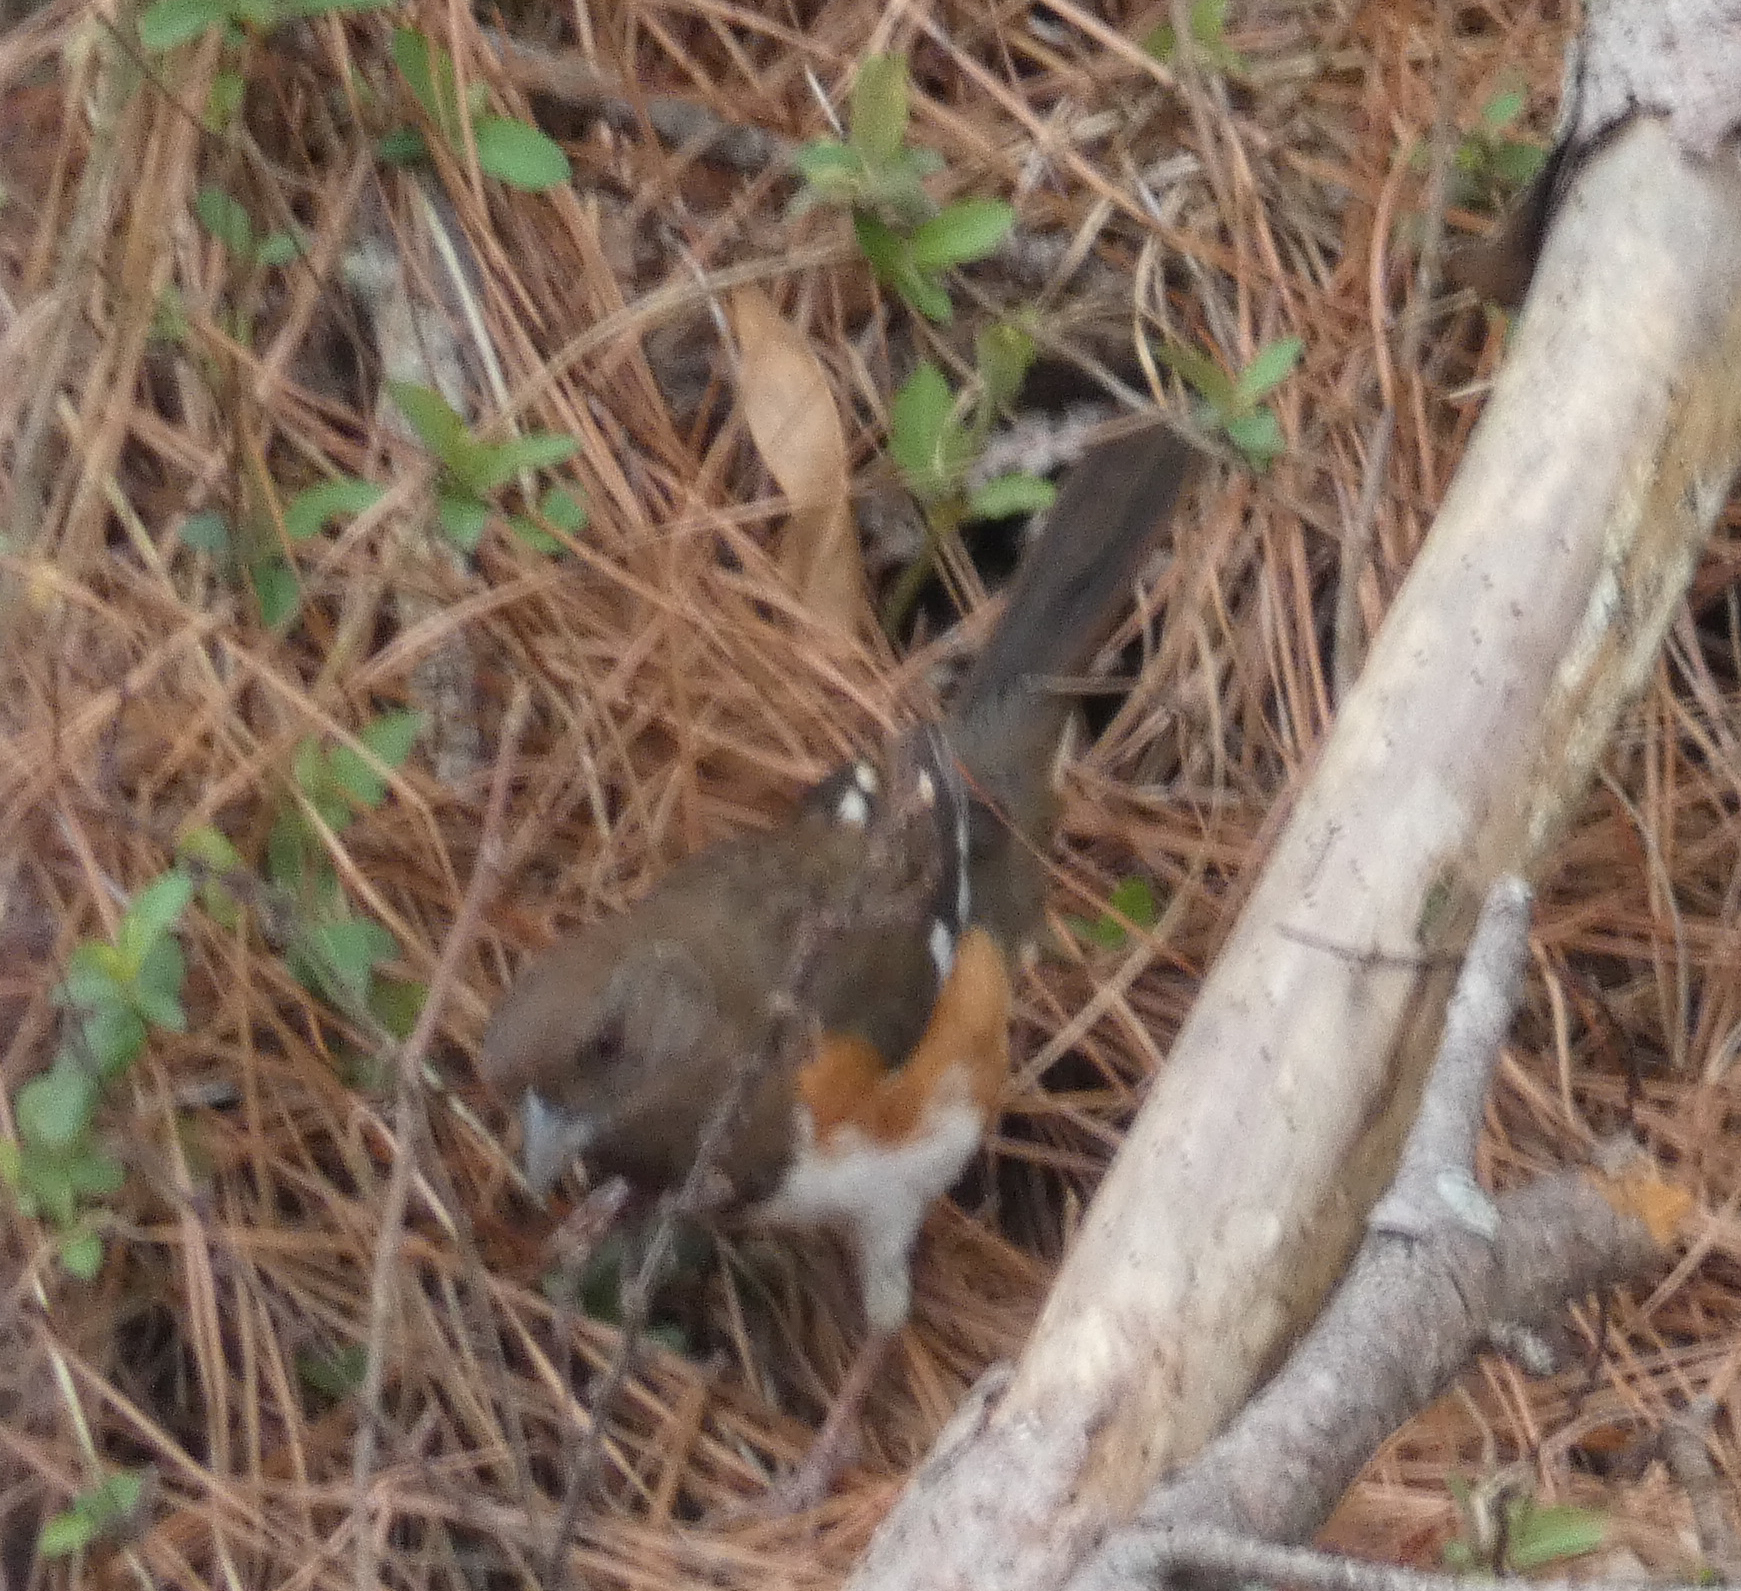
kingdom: Animalia
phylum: Chordata
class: Aves
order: Passeriformes
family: Passerellidae
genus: Pipilo
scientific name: Pipilo erythrophthalmus
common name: Eastern towhee
